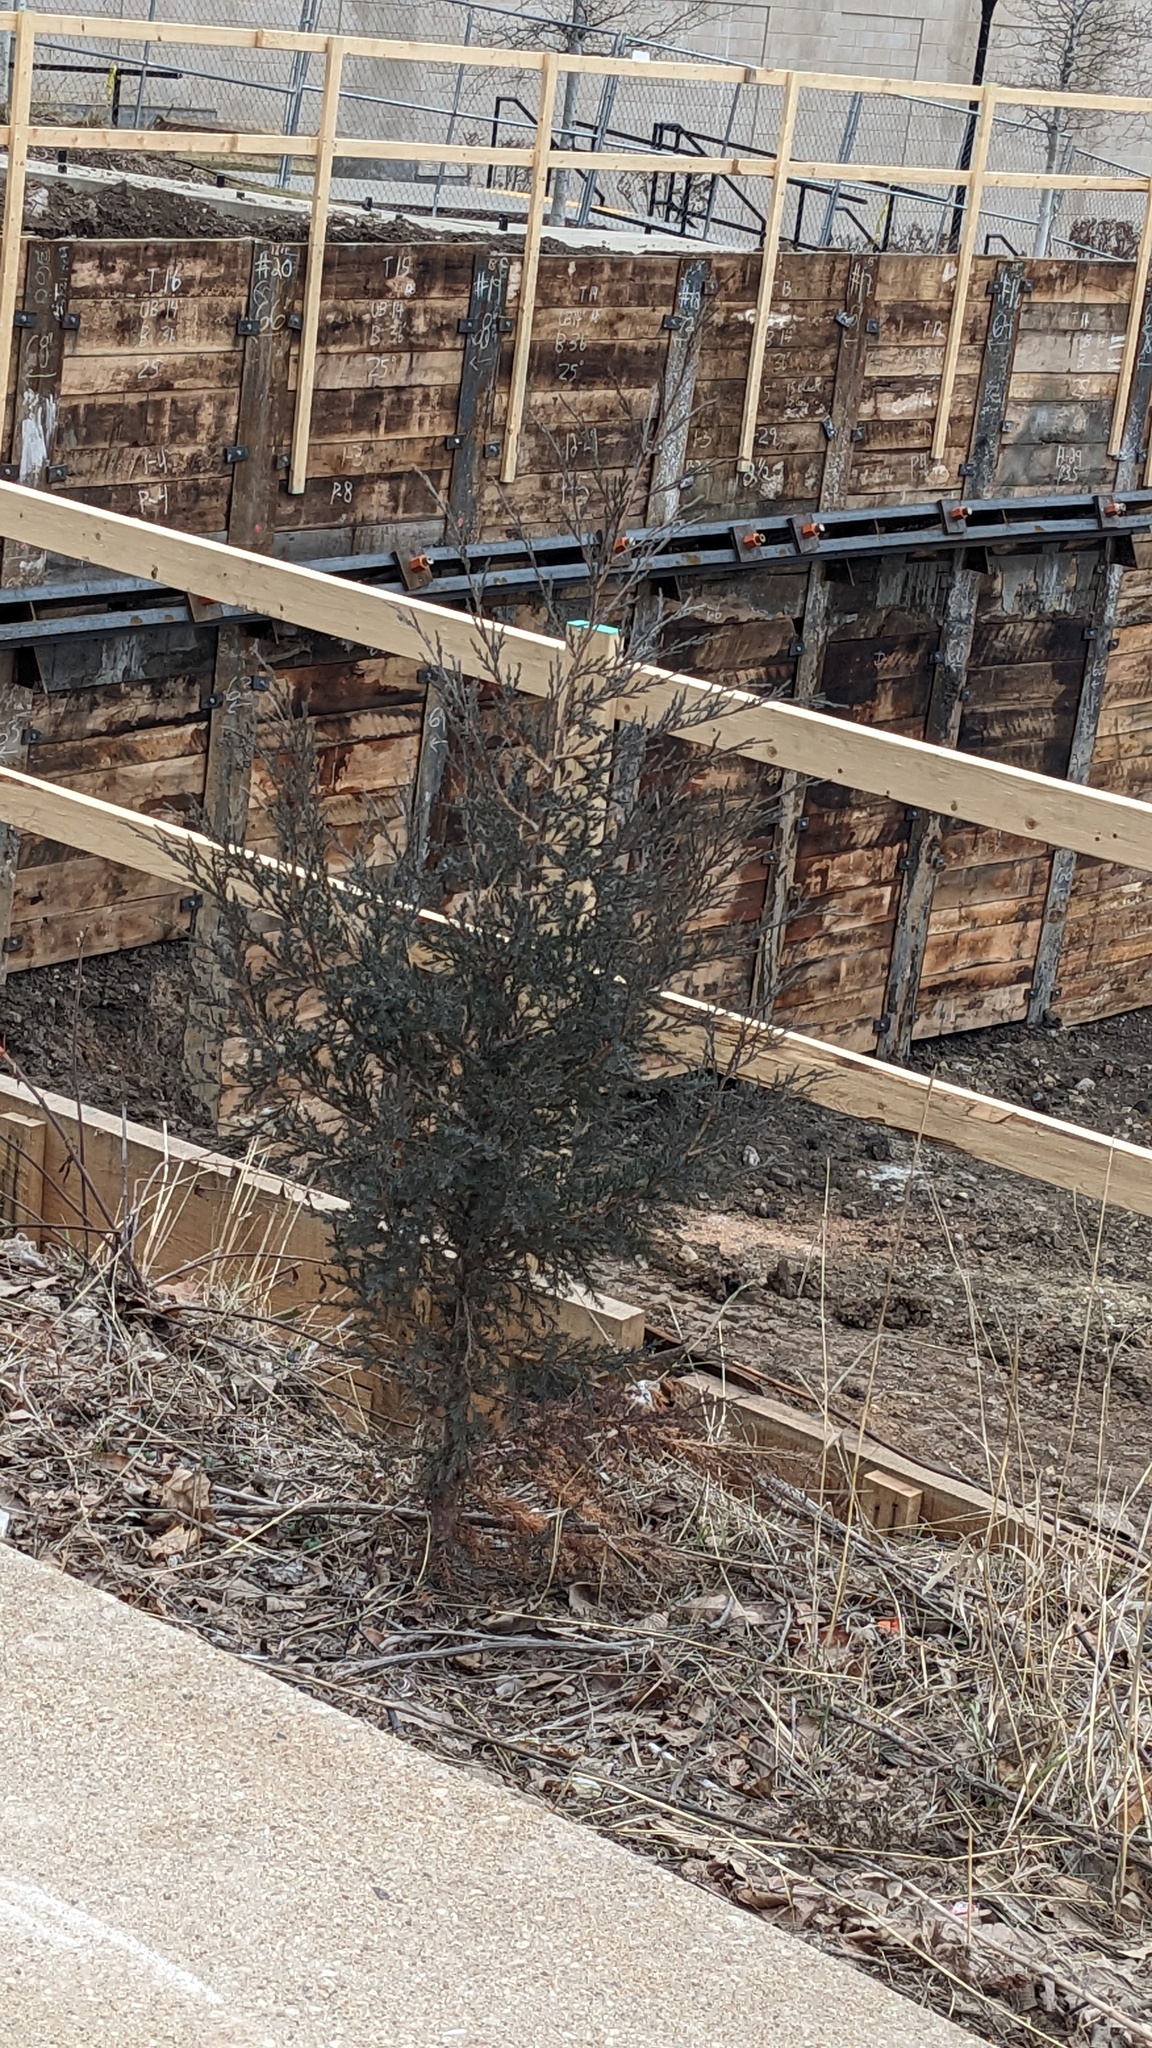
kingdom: Plantae
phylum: Tracheophyta
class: Pinopsida
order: Pinales
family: Cupressaceae
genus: Juniperus
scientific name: Juniperus virginiana
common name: Red juniper
